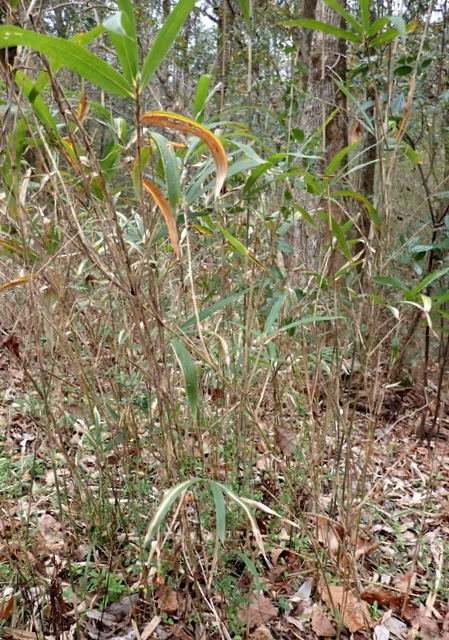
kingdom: Plantae
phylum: Tracheophyta
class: Liliopsida
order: Poales
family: Poaceae
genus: Arundinaria
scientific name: Arundinaria tecta
